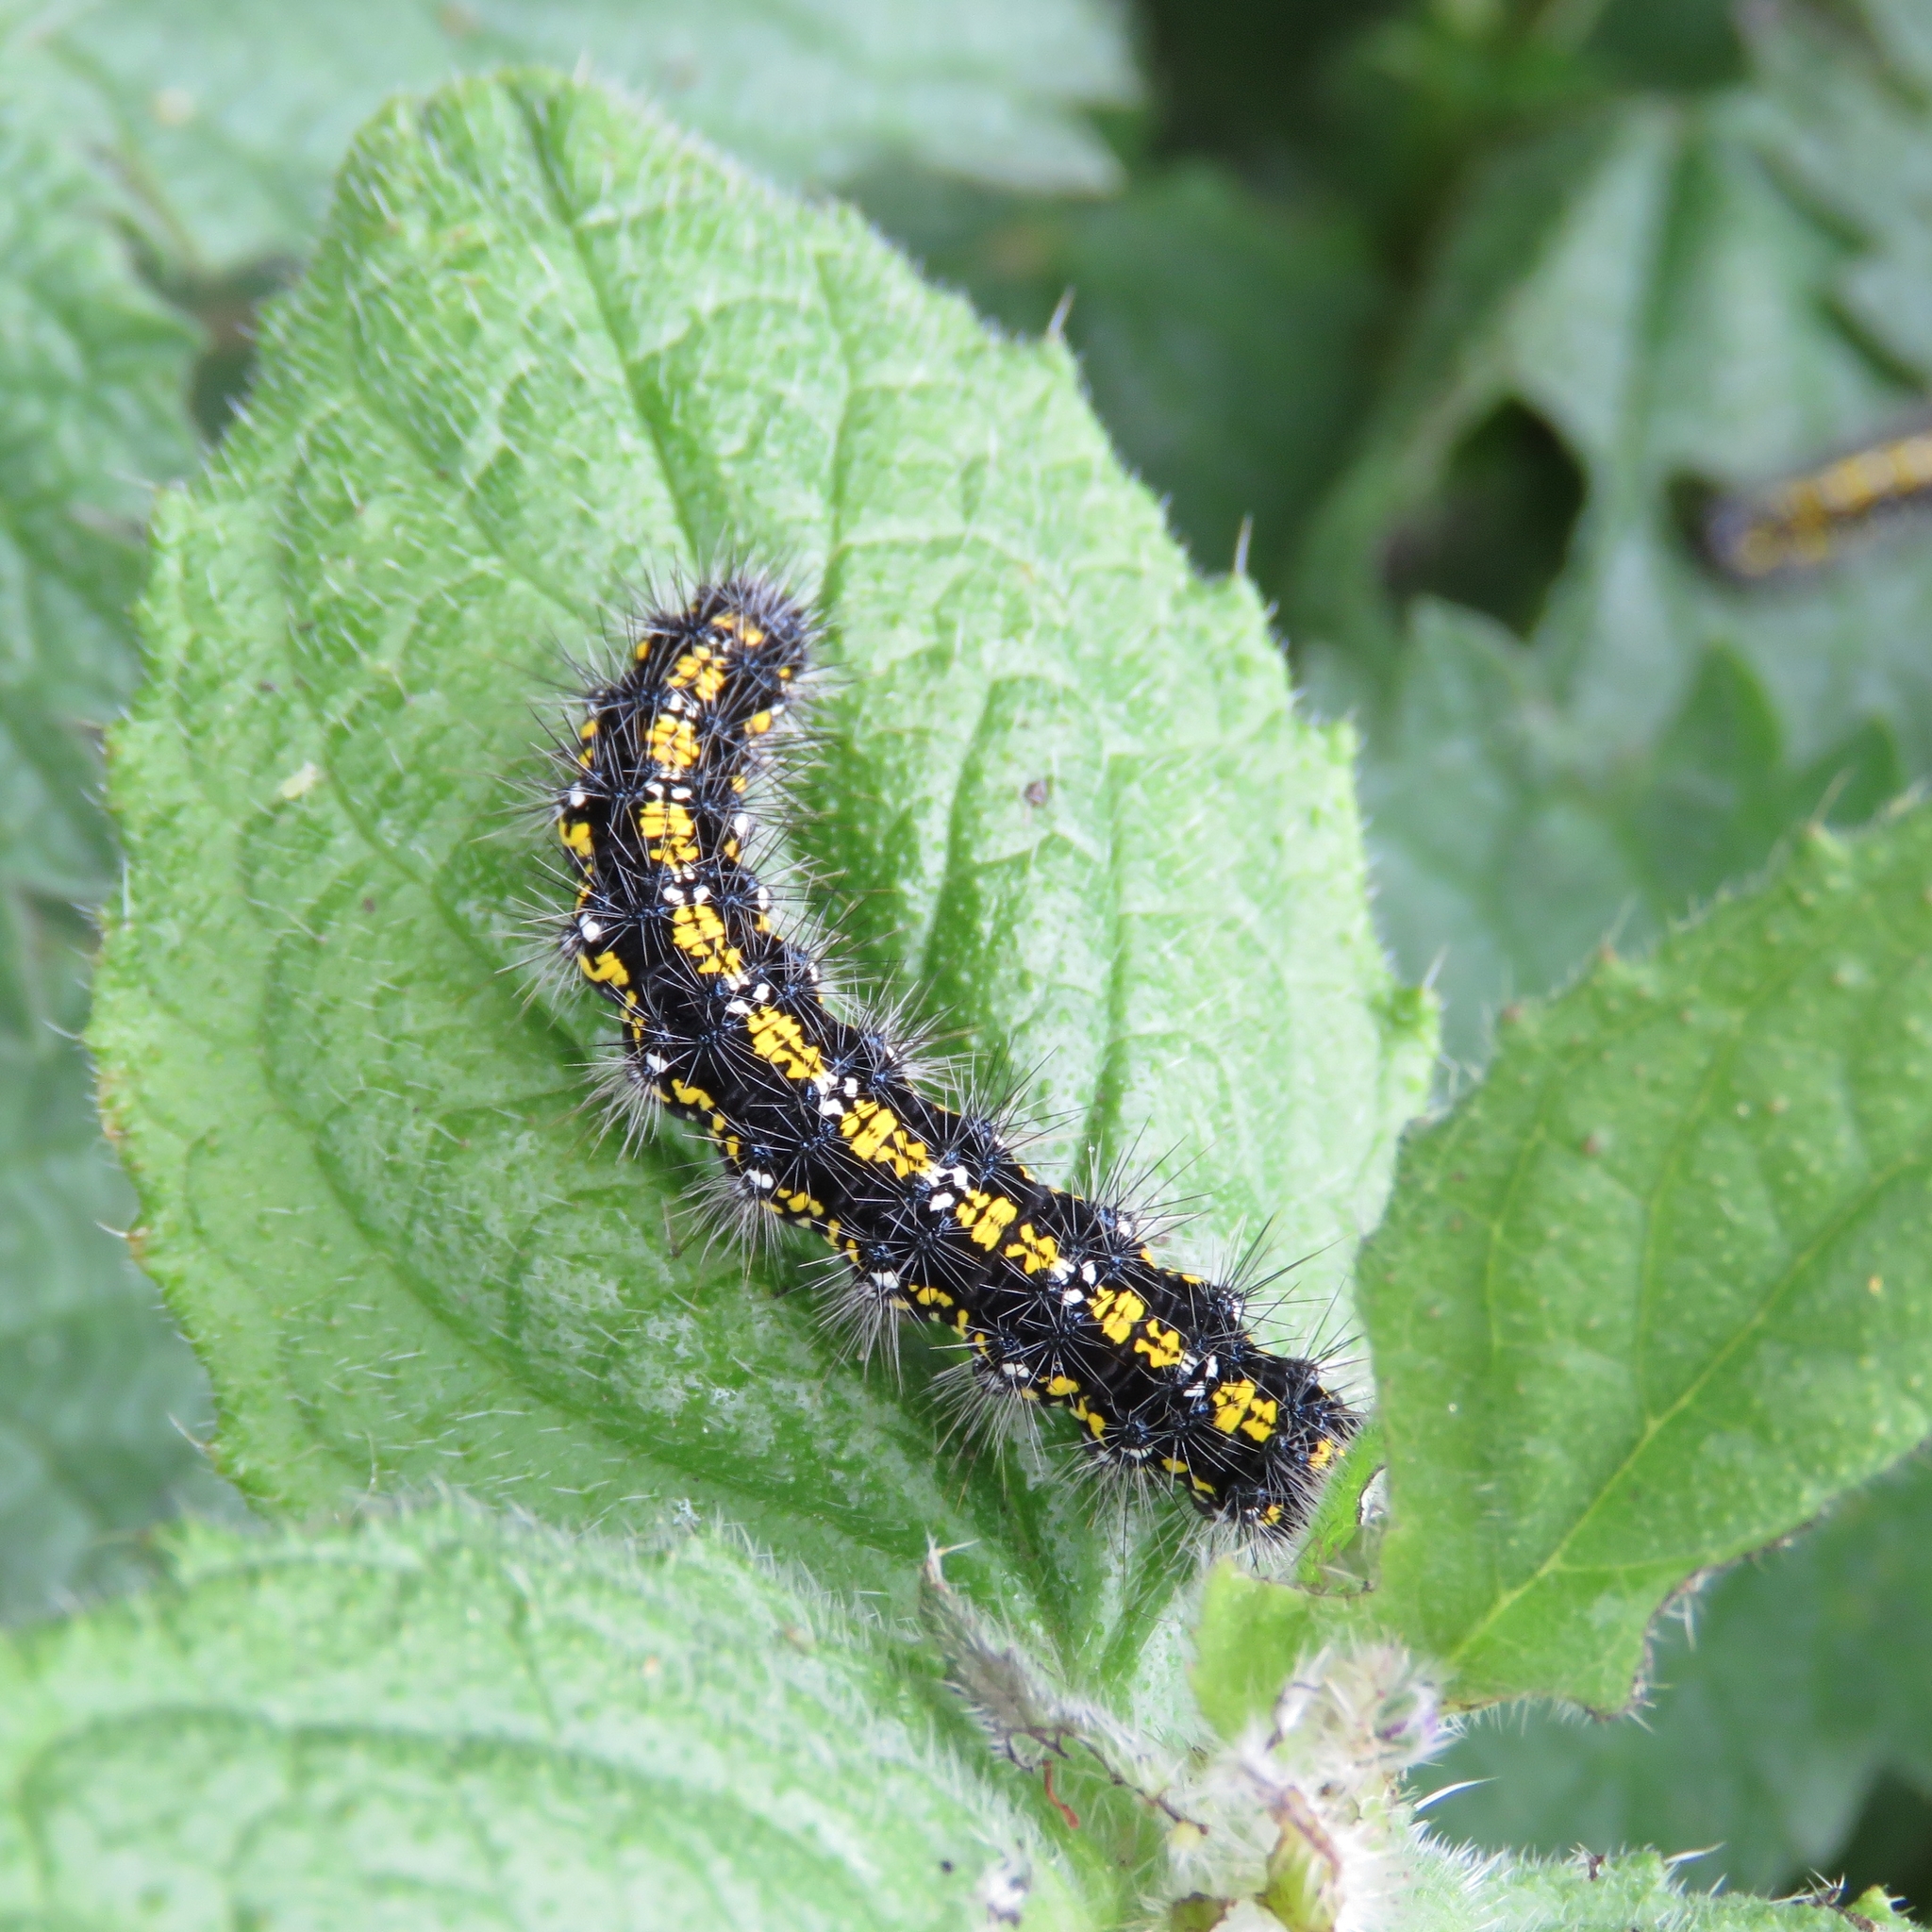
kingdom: Animalia
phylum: Arthropoda
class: Insecta
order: Lepidoptera
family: Erebidae
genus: Callimorpha
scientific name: Callimorpha dominula
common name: Scarlet tiger
